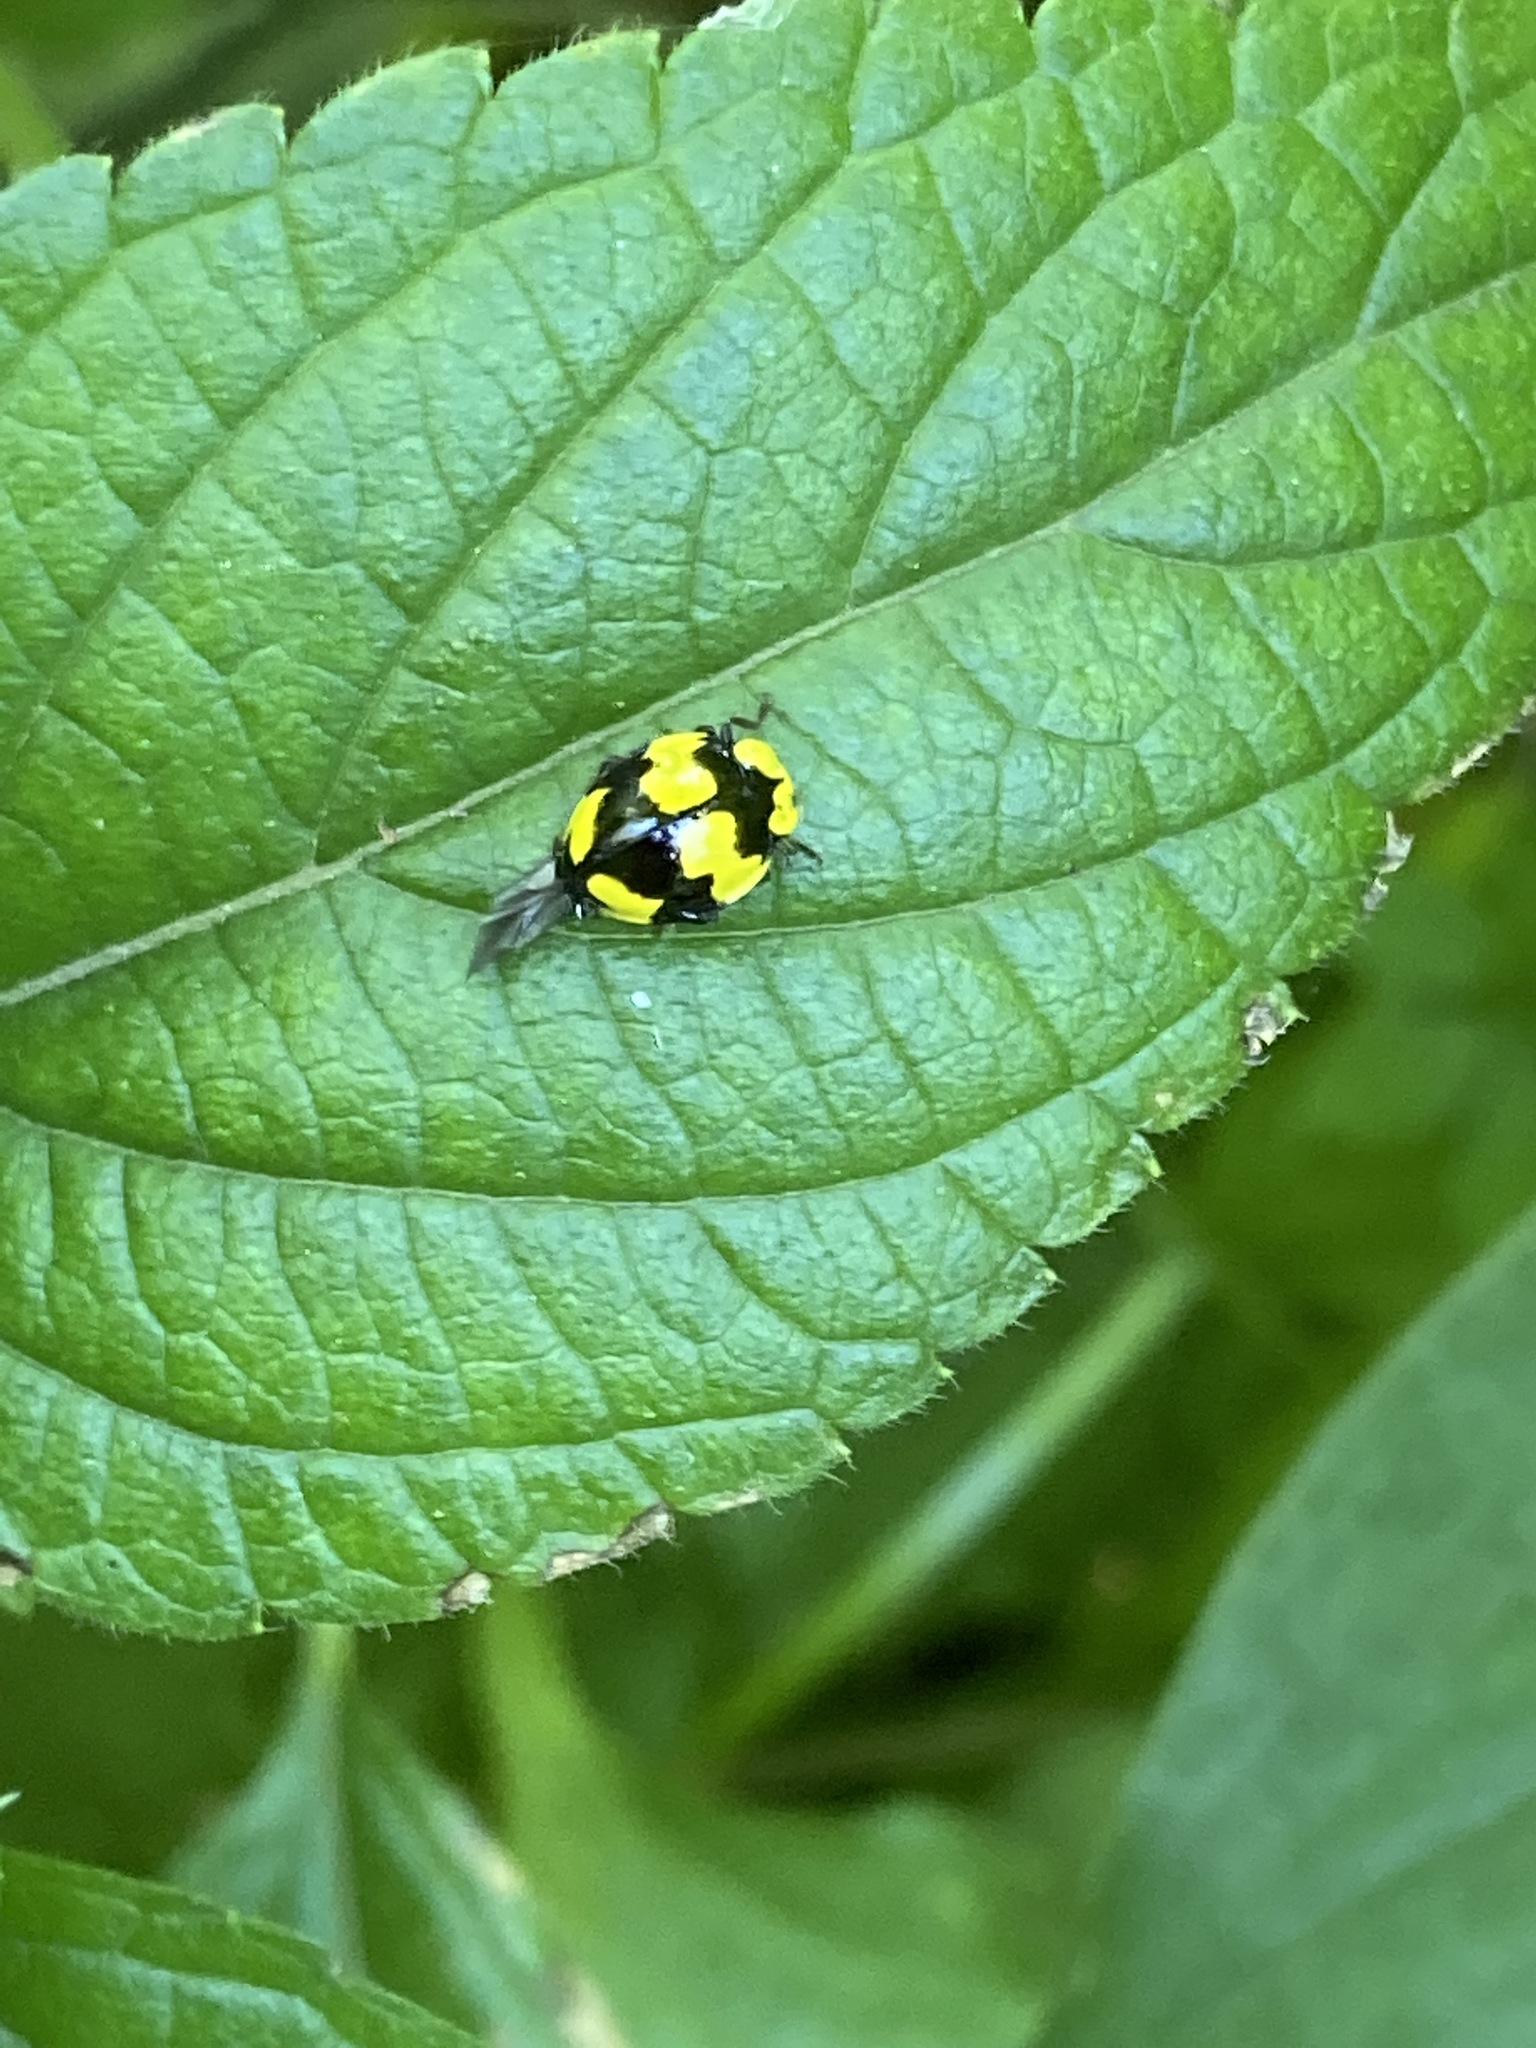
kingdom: Animalia
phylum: Arthropoda
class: Insecta
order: Coleoptera
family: Coccinellidae
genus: Illeis
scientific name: Illeis galbula
